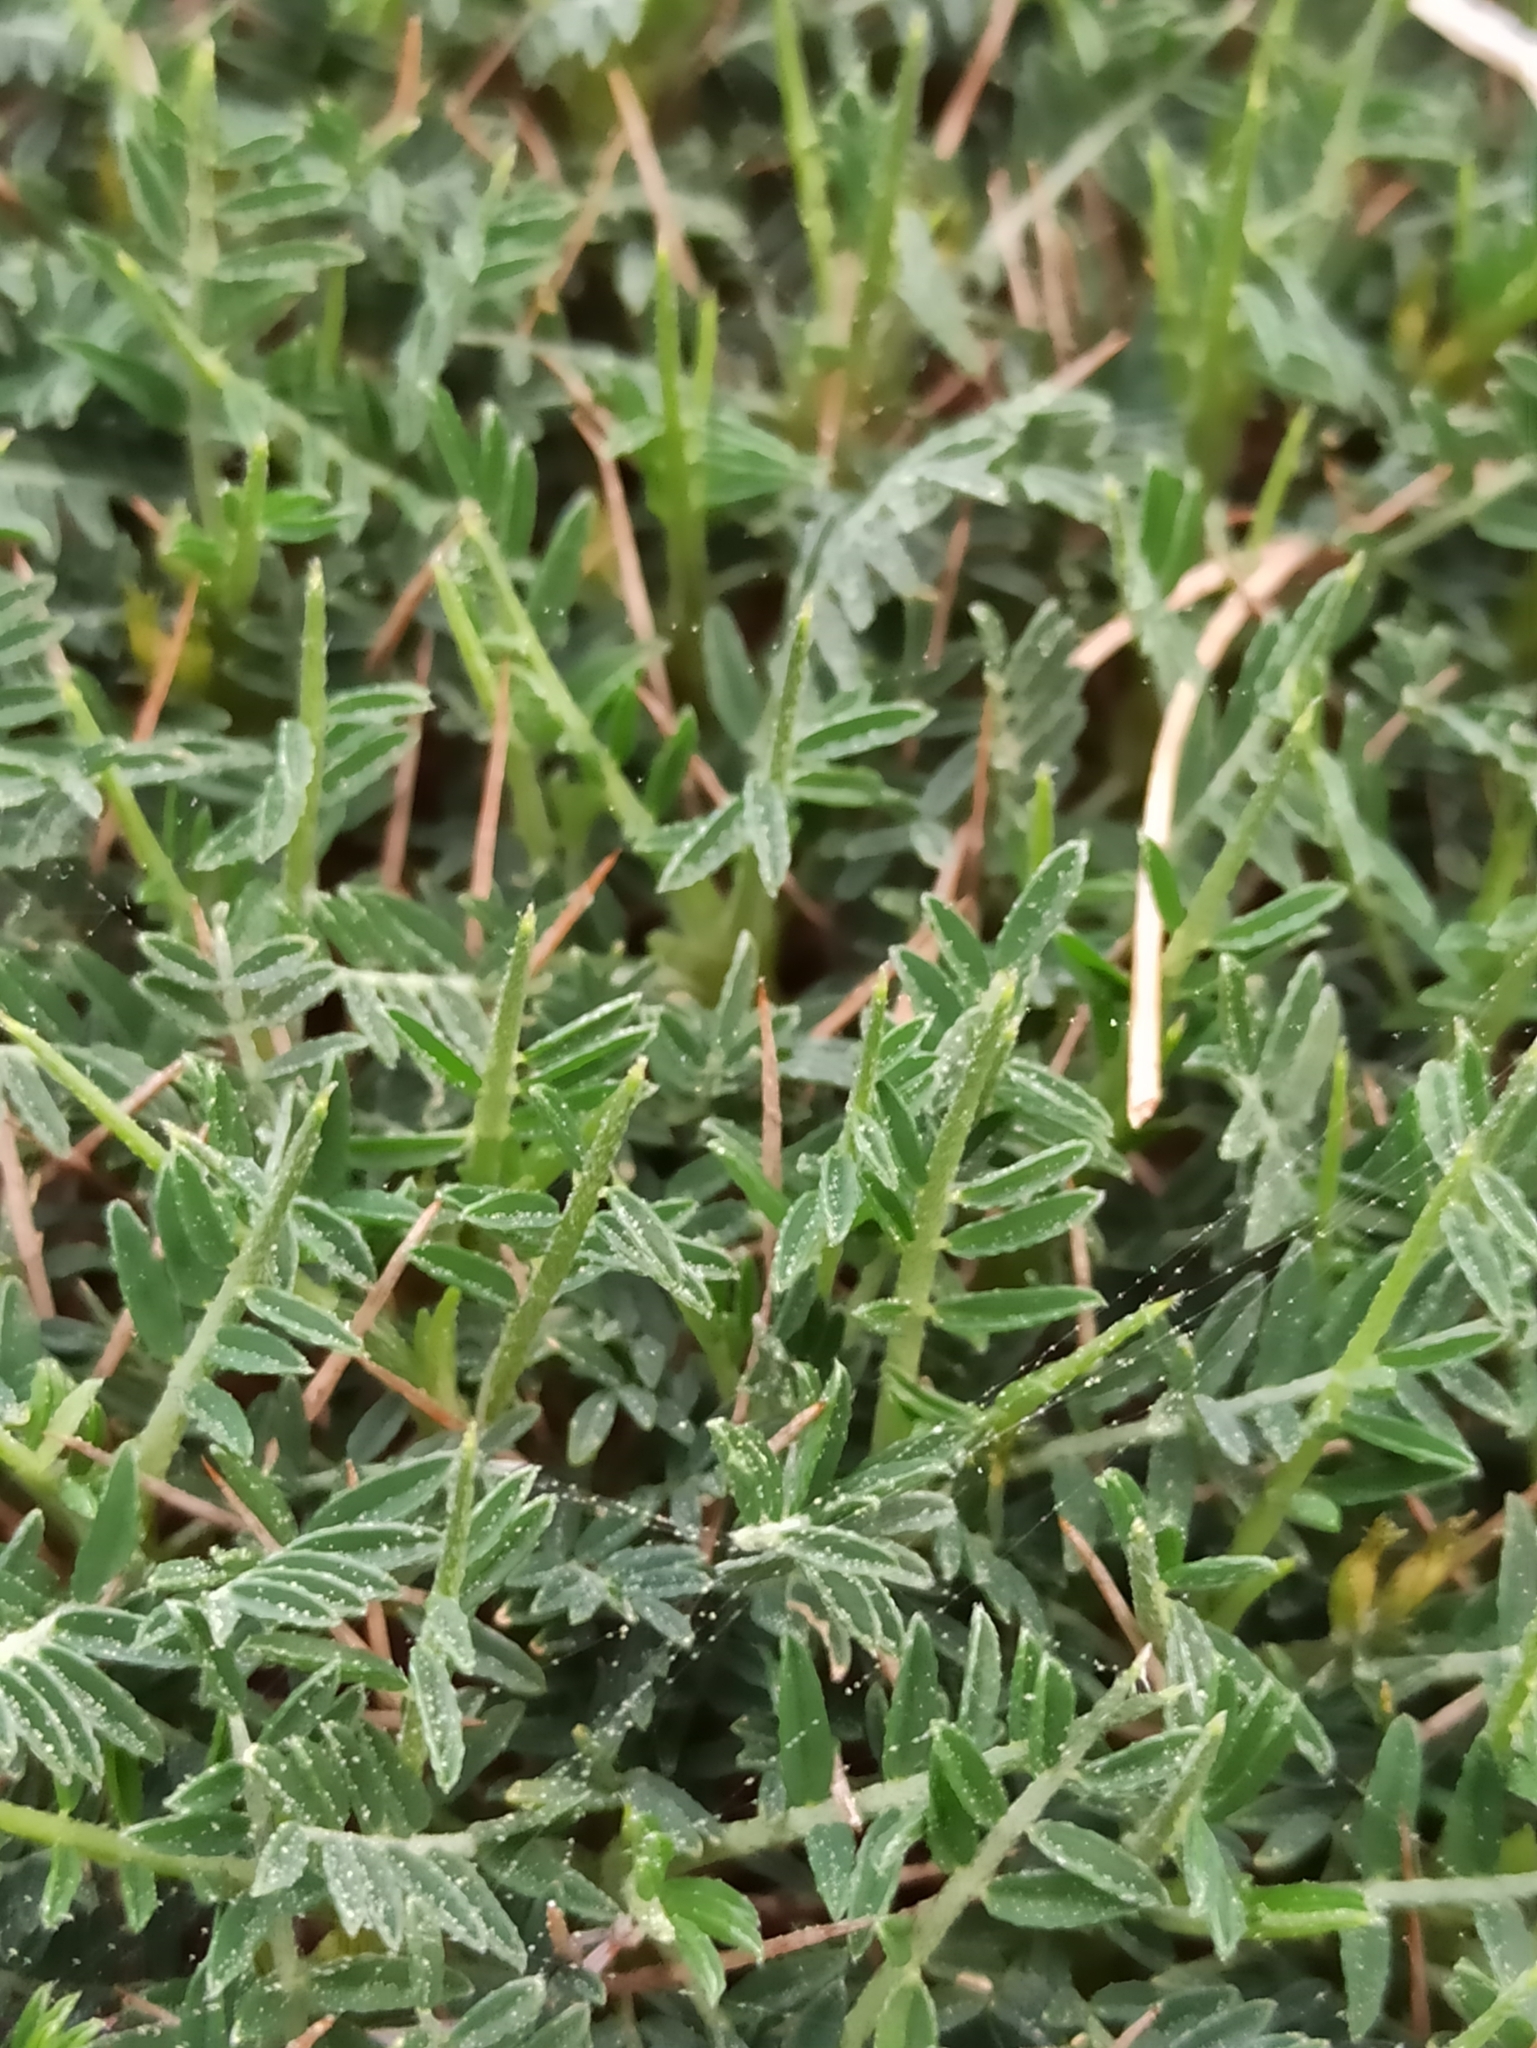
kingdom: Plantae
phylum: Tracheophyta
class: Magnoliopsida
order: Fabales
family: Fabaceae
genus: Astragalus
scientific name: Astragalus balearicus
